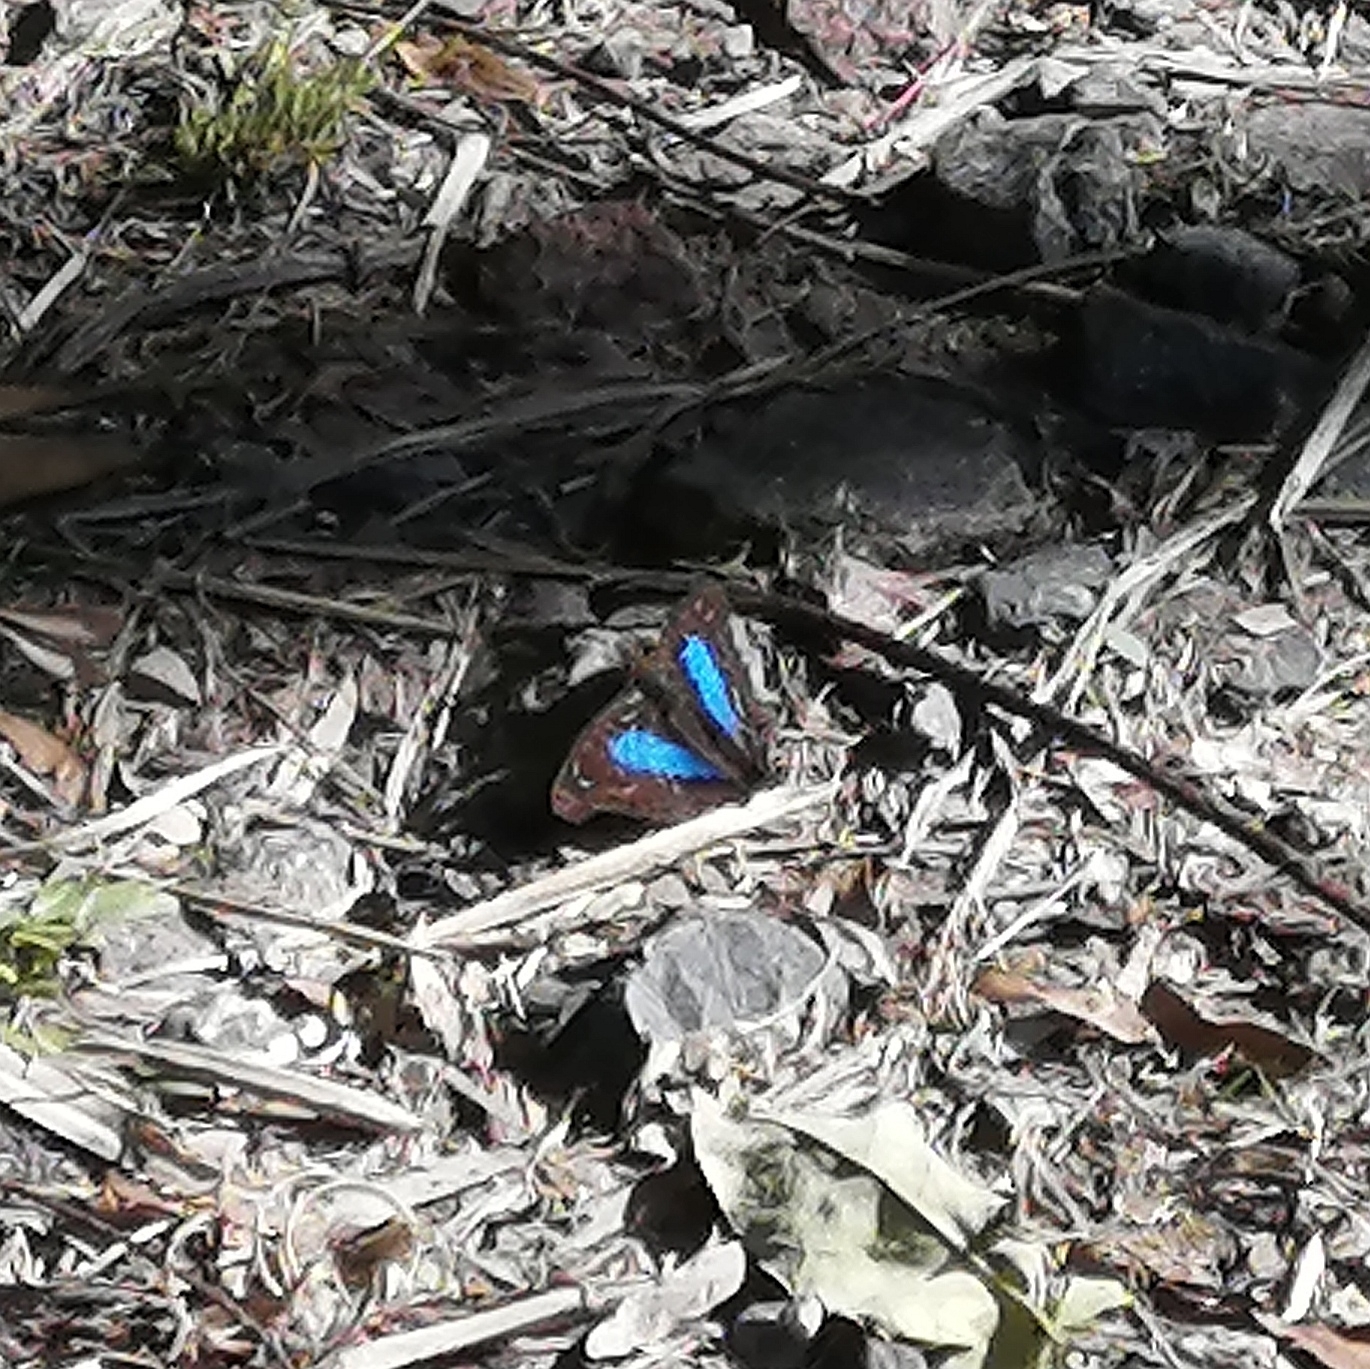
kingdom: Animalia
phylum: Arthropoda
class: Insecta
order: Lepidoptera
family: Nymphalidae
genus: Doxocopa
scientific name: Doxocopa laurentia
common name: Turquoise emperor
